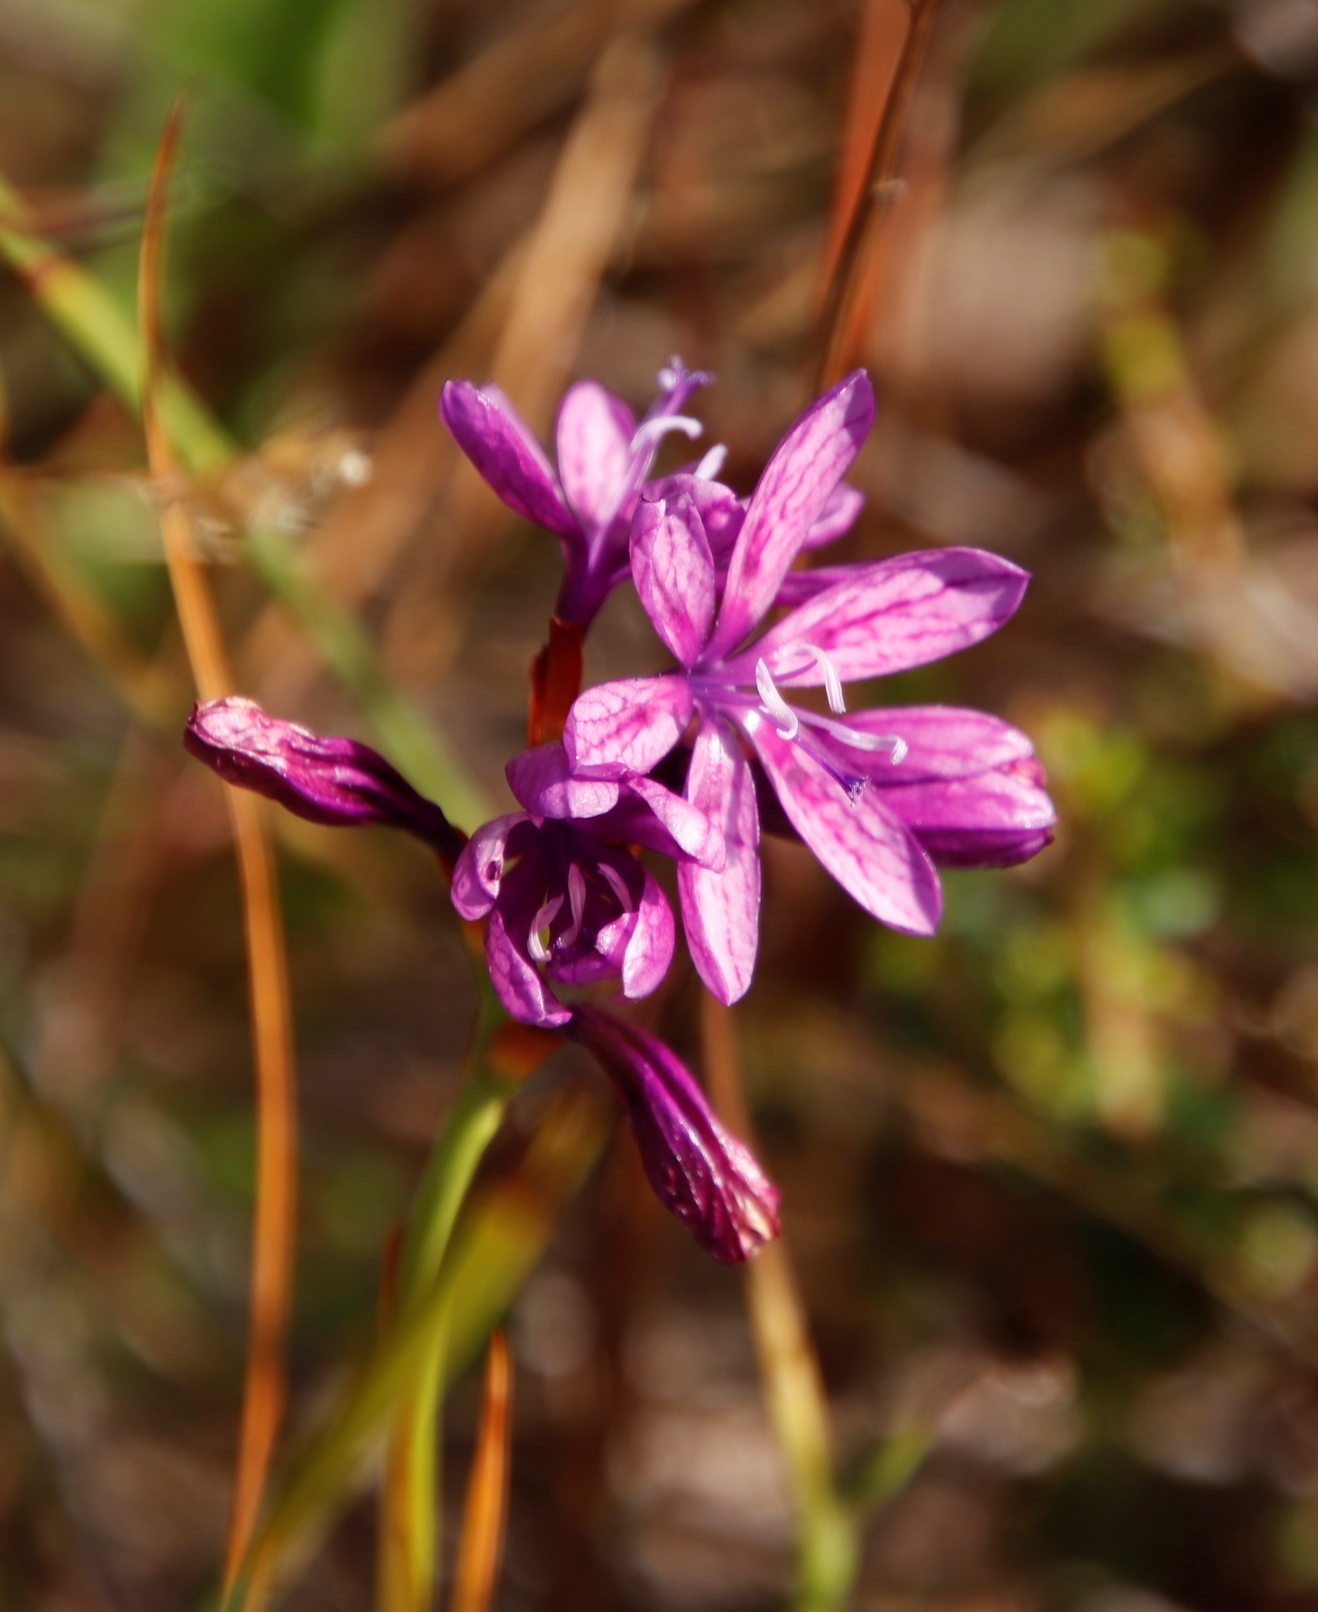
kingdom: Plantae
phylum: Tracheophyta
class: Liliopsida
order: Asparagales
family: Iridaceae
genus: Thereianthus
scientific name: Thereianthus bracteolatus
